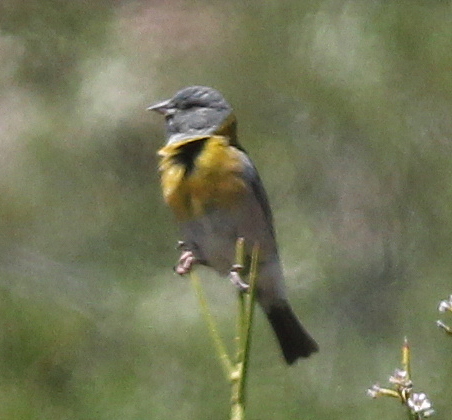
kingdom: Animalia
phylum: Chordata
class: Aves
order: Passeriformes
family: Thraupidae
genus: Phrygilus
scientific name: Phrygilus gayi
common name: Grey-hooded sierra finch
